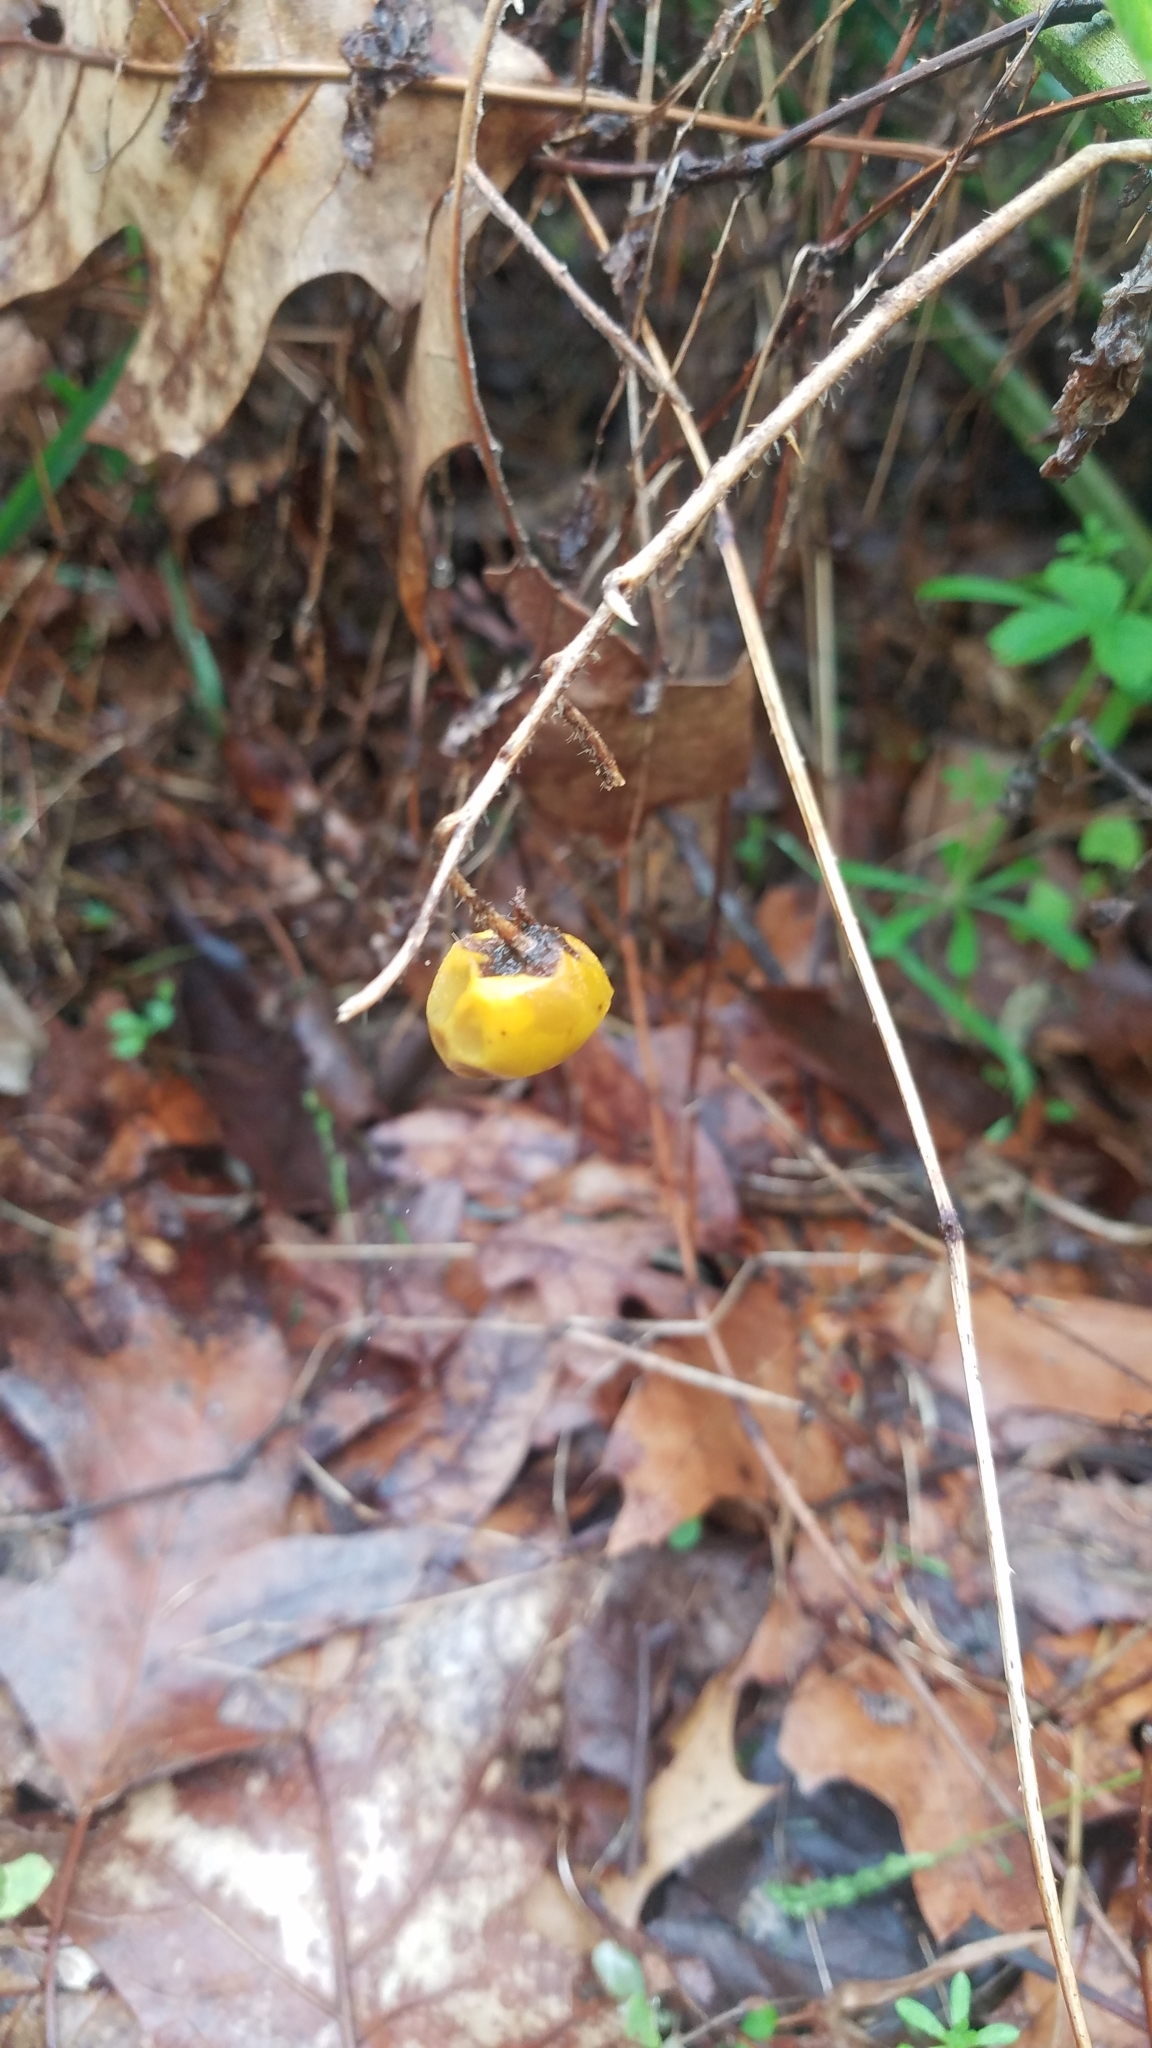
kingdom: Plantae
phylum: Tracheophyta
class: Magnoliopsida
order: Solanales
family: Solanaceae
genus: Solanum
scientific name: Solanum carolinense
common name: Horse-nettle
